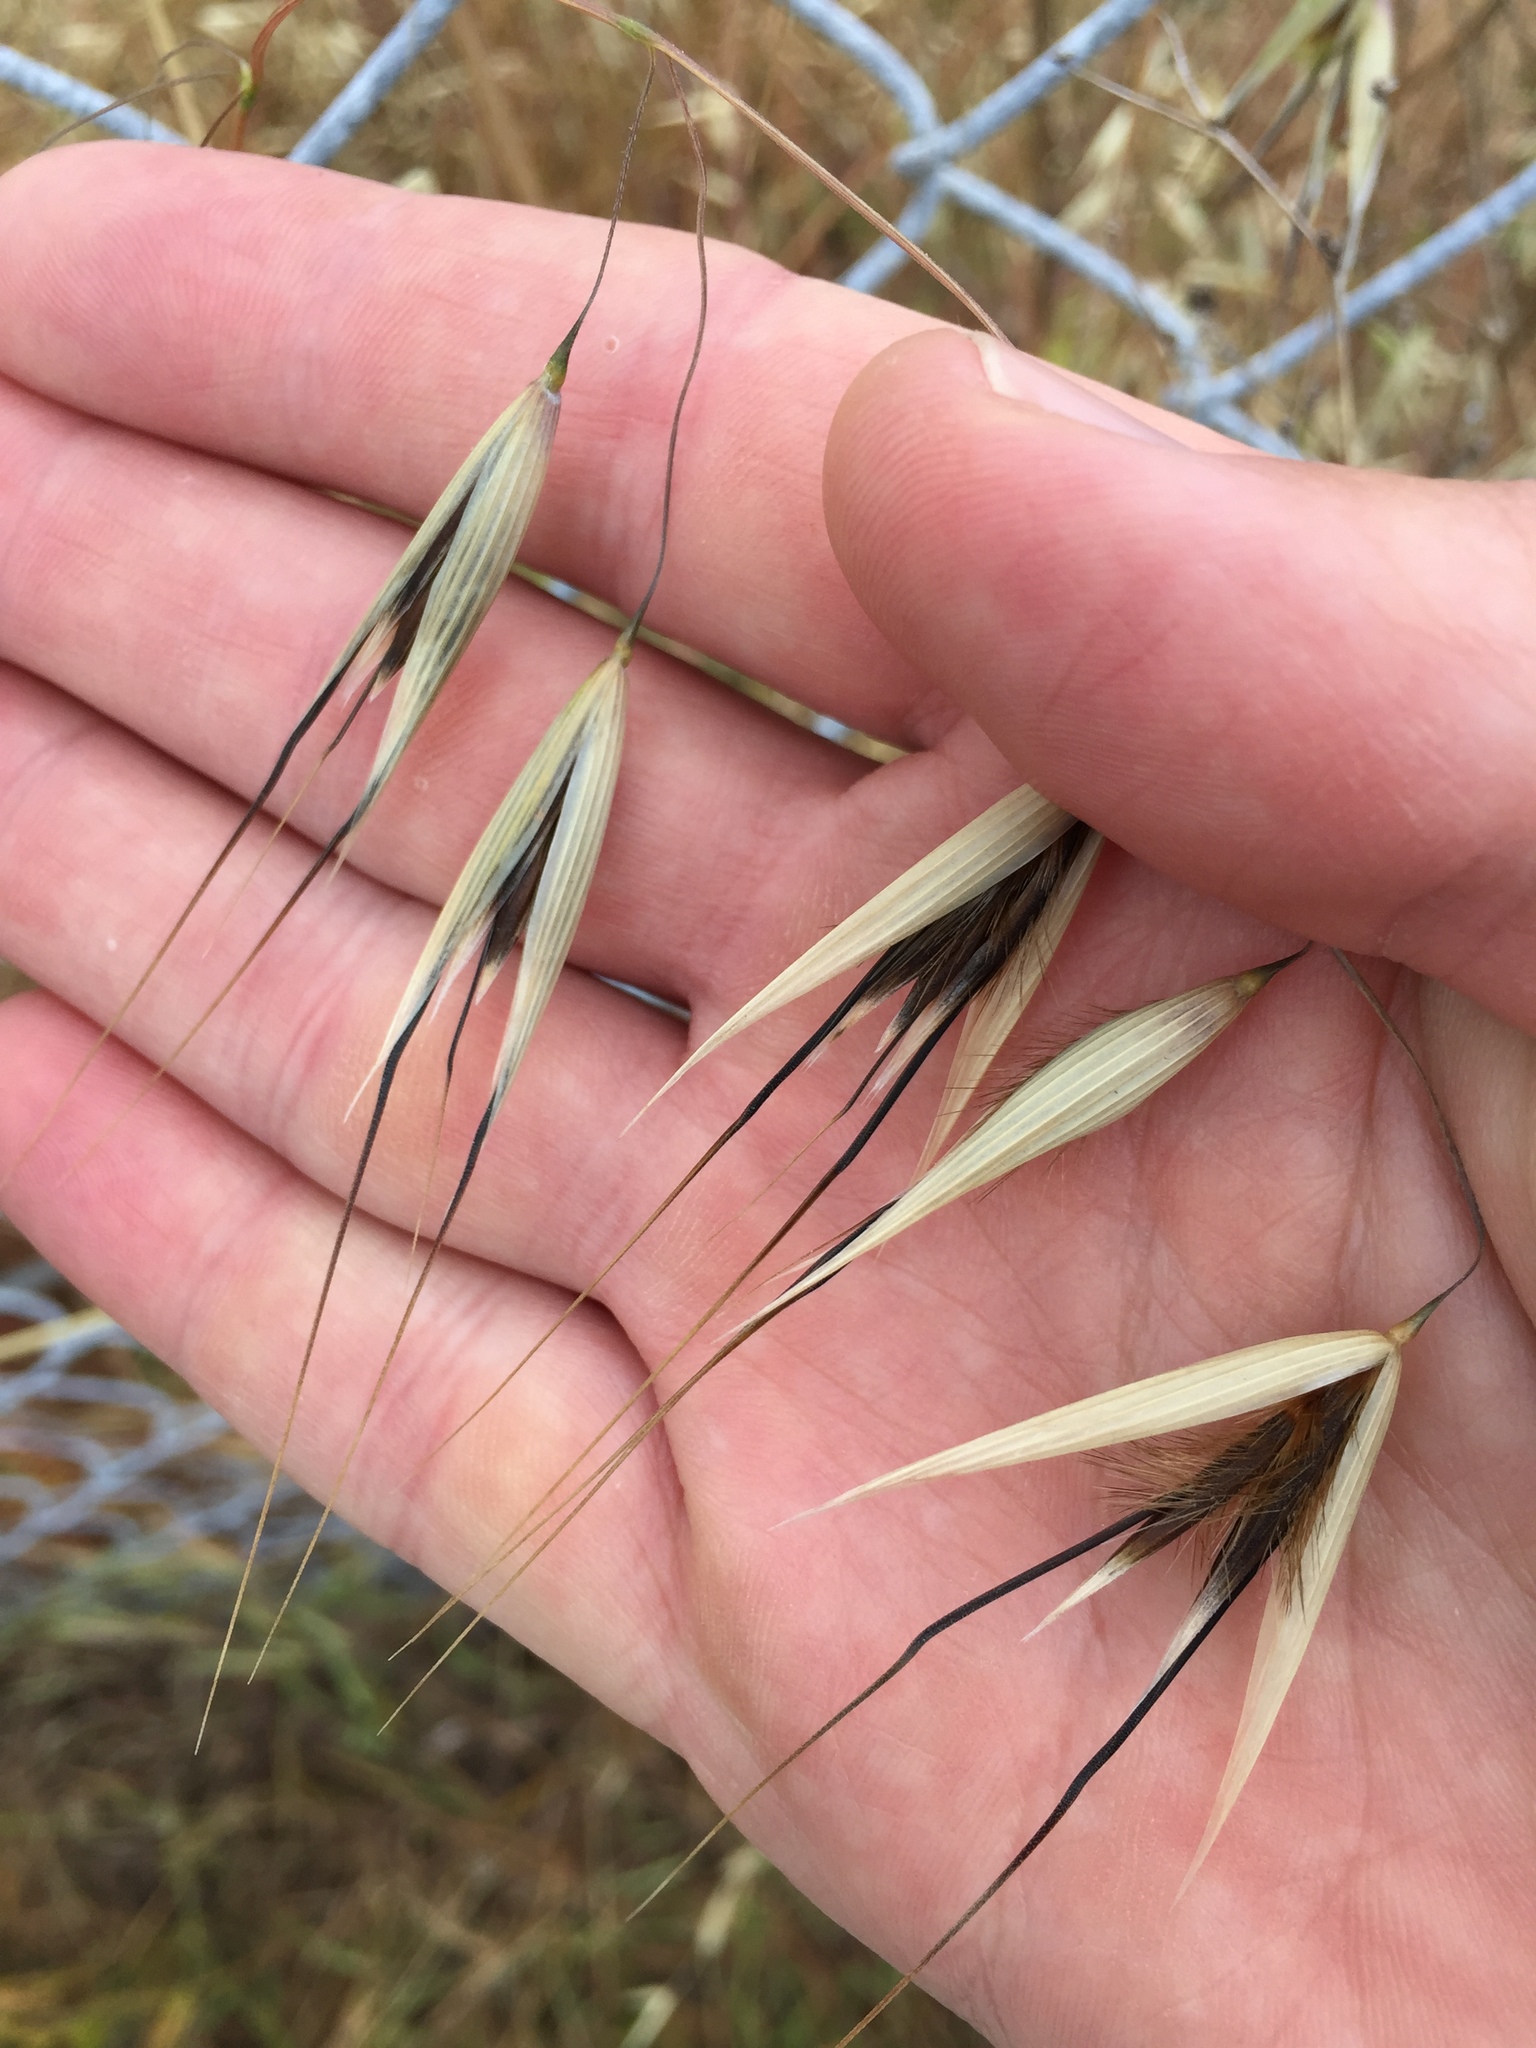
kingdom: Plantae
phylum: Tracheophyta
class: Liliopsida
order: Poales
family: Poaceae
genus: Avena
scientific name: Avena barbata
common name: Slender oat
